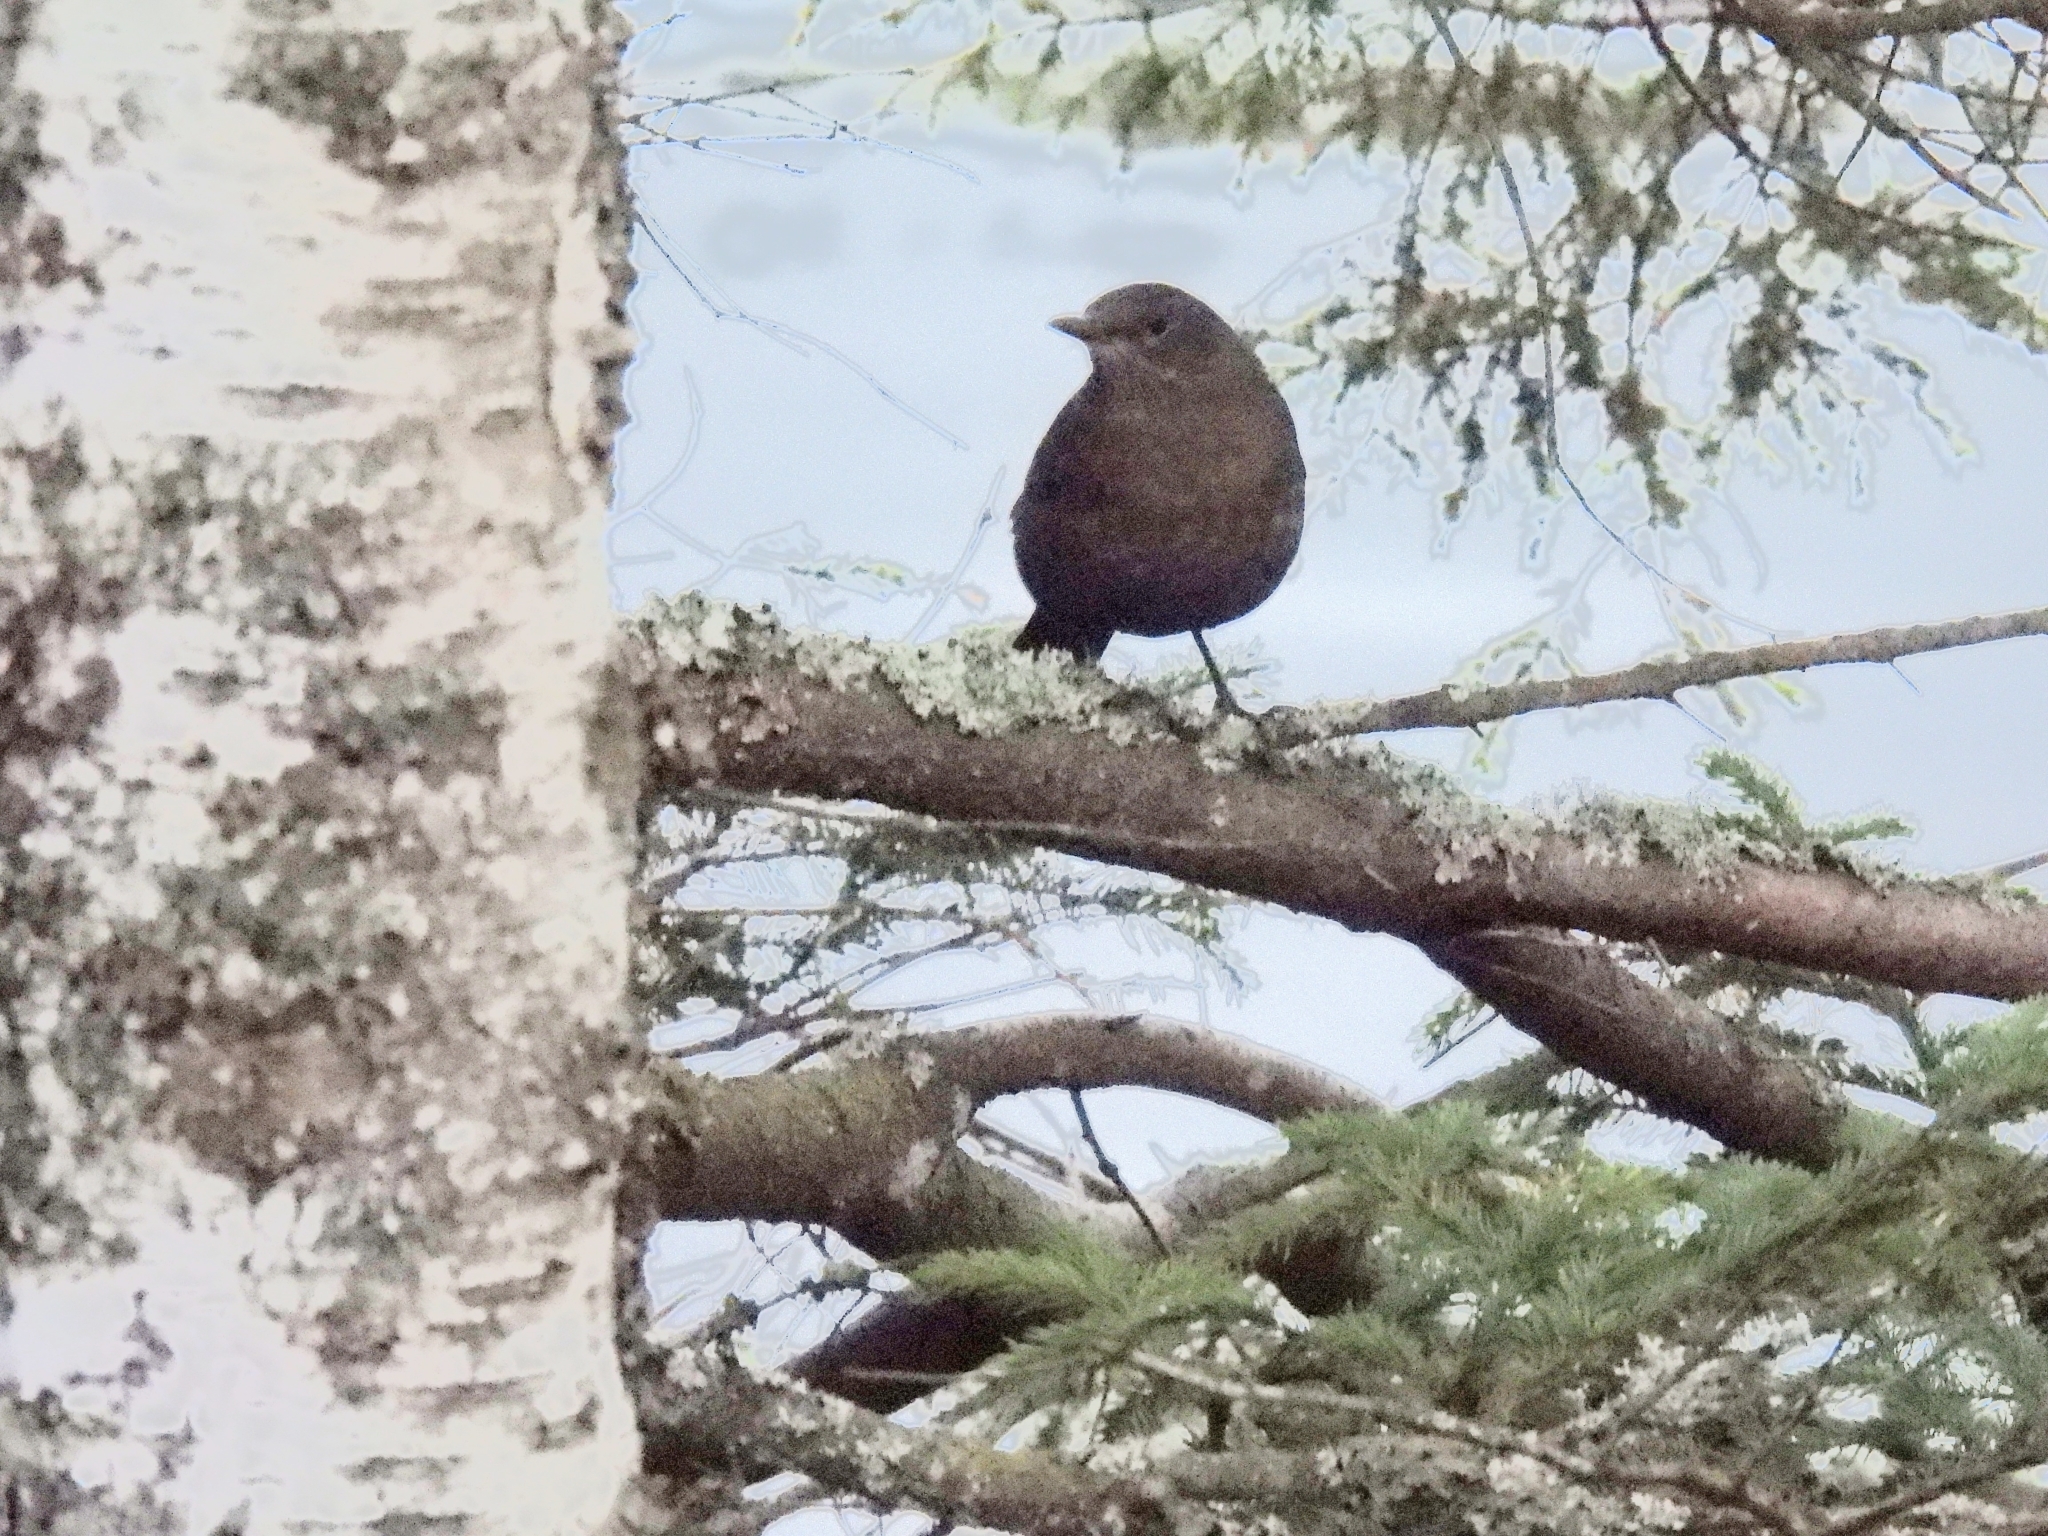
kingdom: Animalia
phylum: Chordata
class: Aves
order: Passeriformes
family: Turdidae
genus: Turdus
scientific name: Turdus merula
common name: Common blackbird
